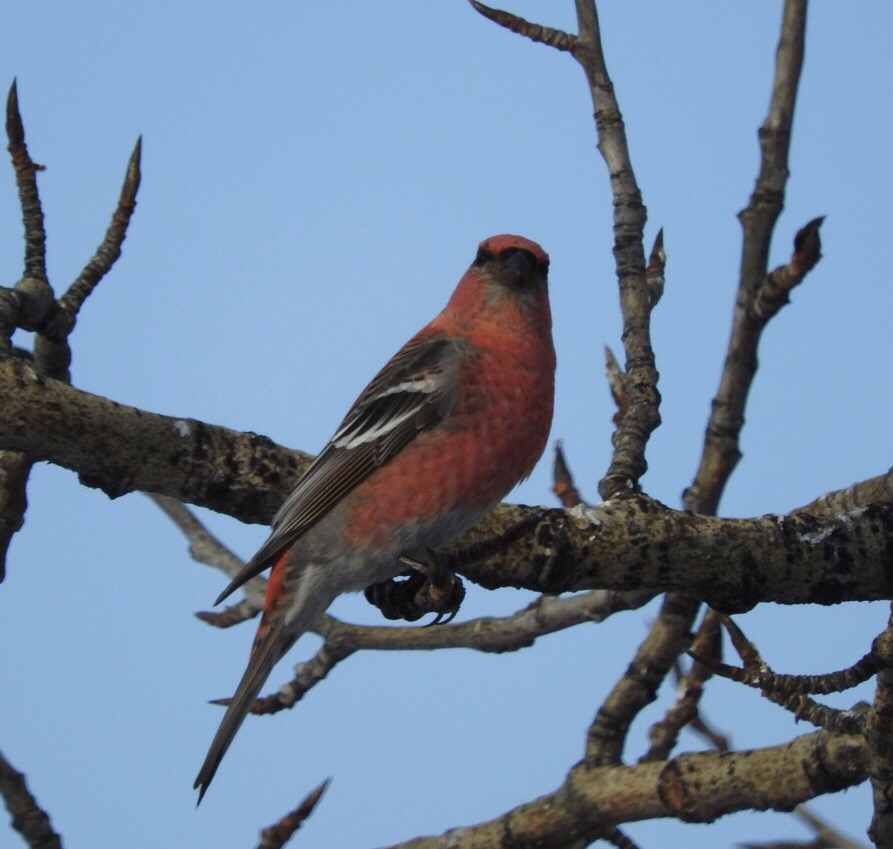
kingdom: Animalia
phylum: Chordata
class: Aves
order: Passeriformes
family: Fringillidae
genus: Pinicola
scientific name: Pinicola enucleator
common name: Pine grosbeak
